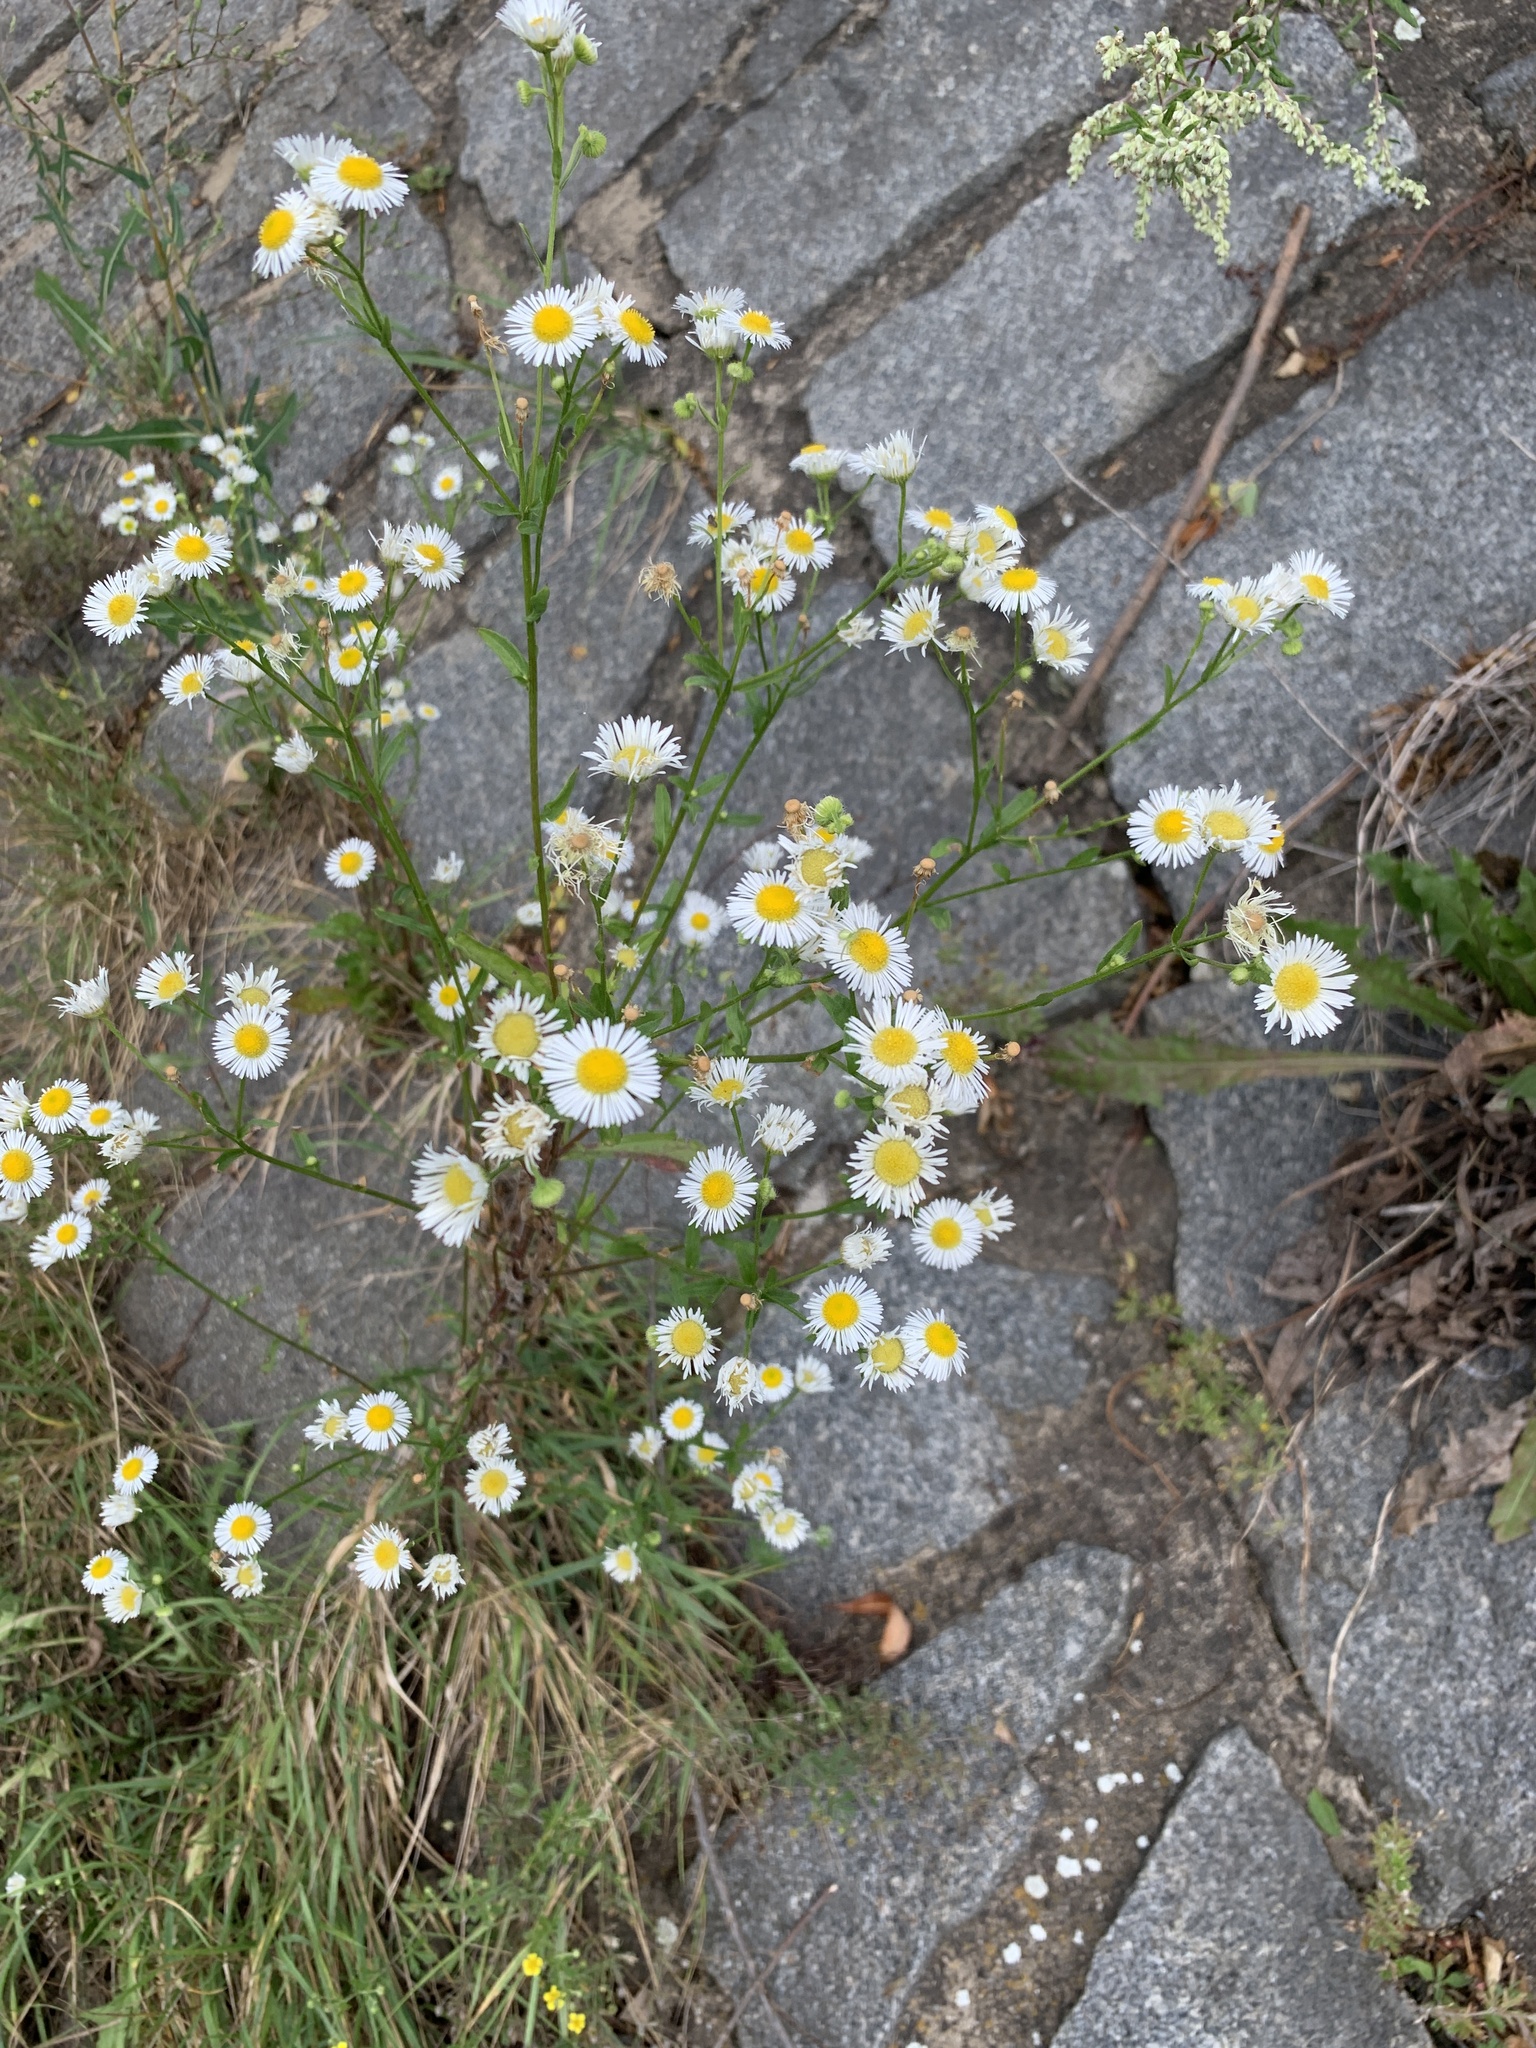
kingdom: Plantae
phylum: Tracheophyta
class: Magnoliopsida
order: Asterales
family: Asteraceae
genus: Erigeron
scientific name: Erigeron annuus
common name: Tall fleabane
